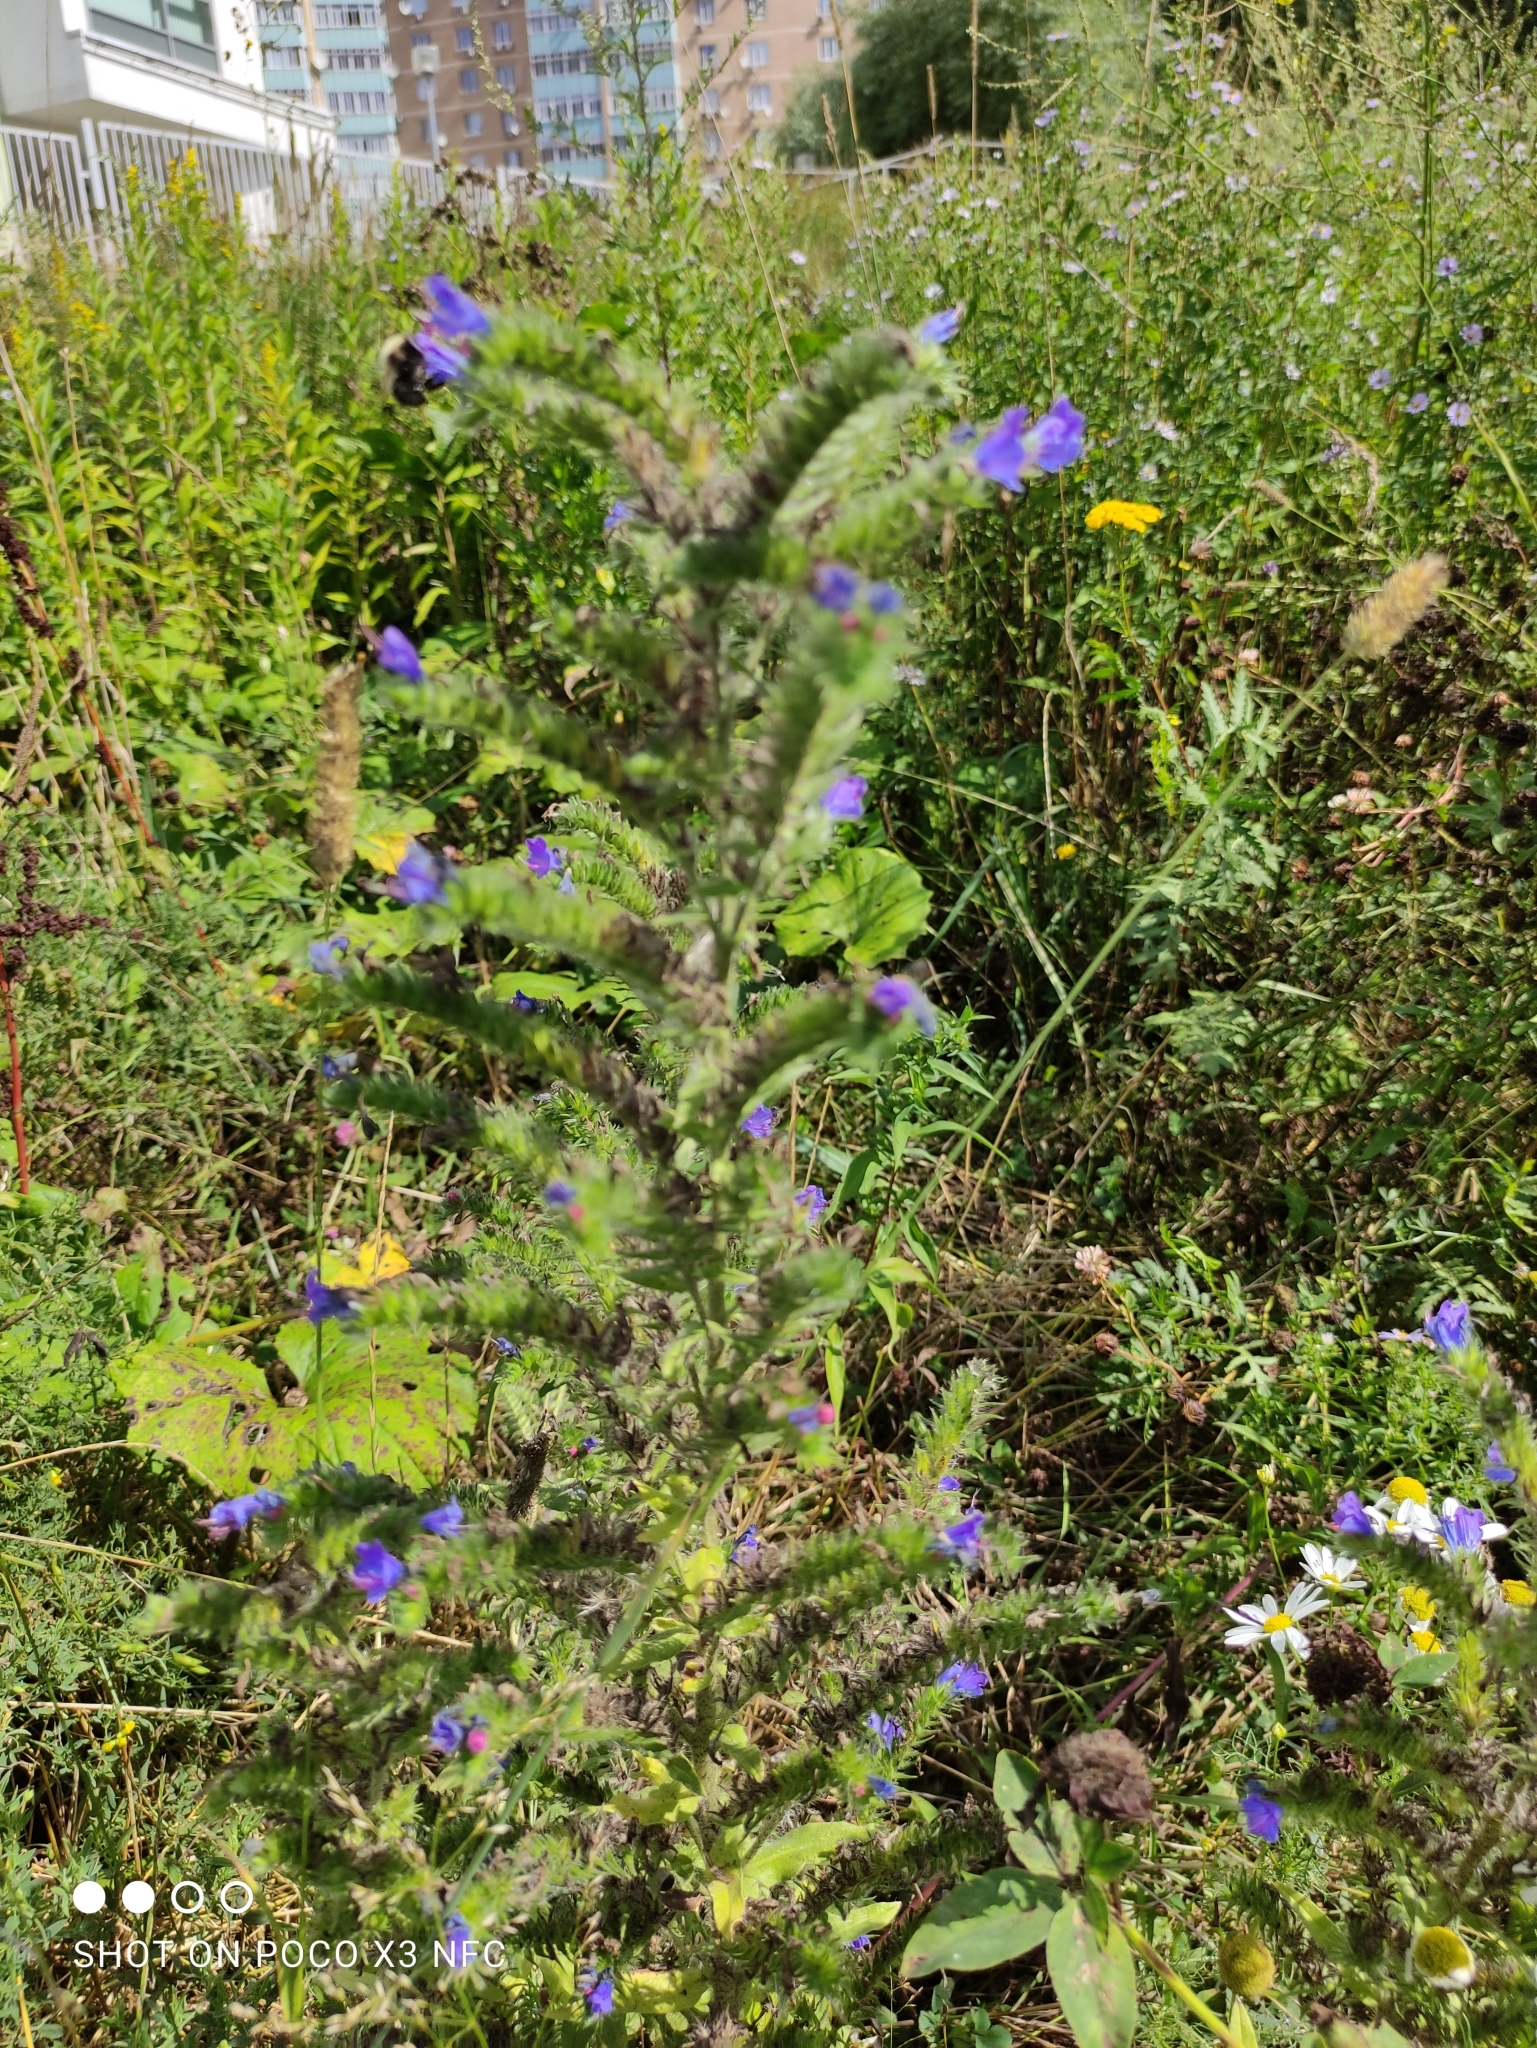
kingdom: Plantae
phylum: Tracheophyta
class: Magnoliopsida
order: Boraginales
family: Boraginaceae
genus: Echium
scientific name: Echium vulgare
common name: Common viper's bugloss
